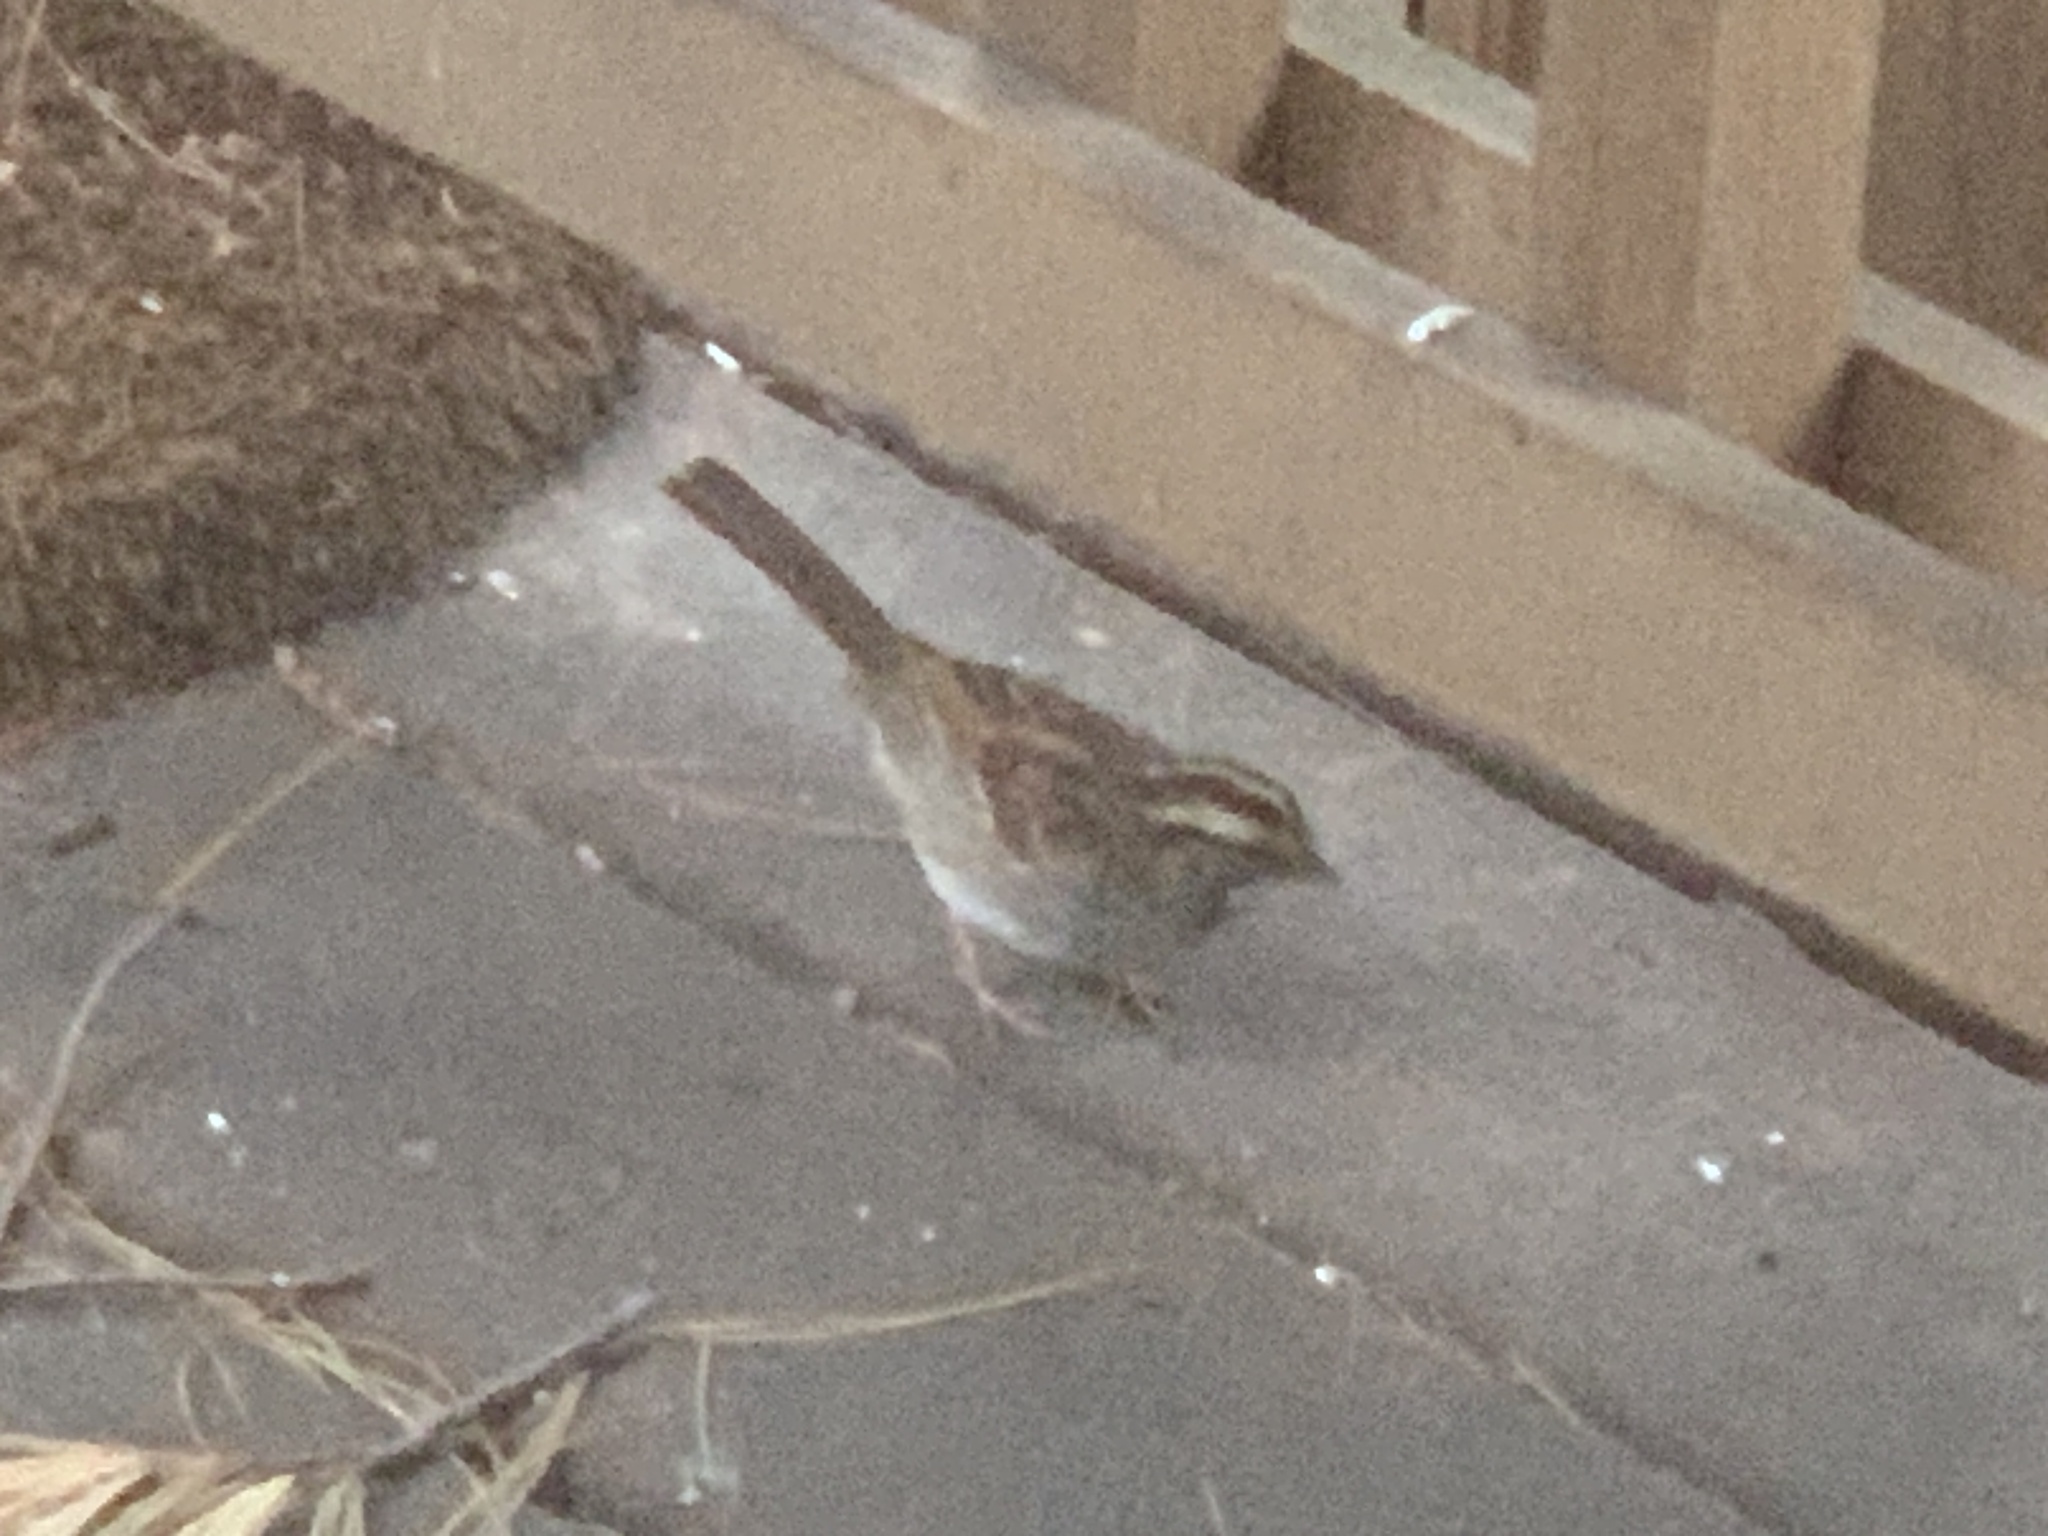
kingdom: Animalia
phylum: Chordata
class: Aves
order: Passeriformes
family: Passerellidae
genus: Zonotrichia
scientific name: Zonotrichia albicollis
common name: White-throated sparrow
